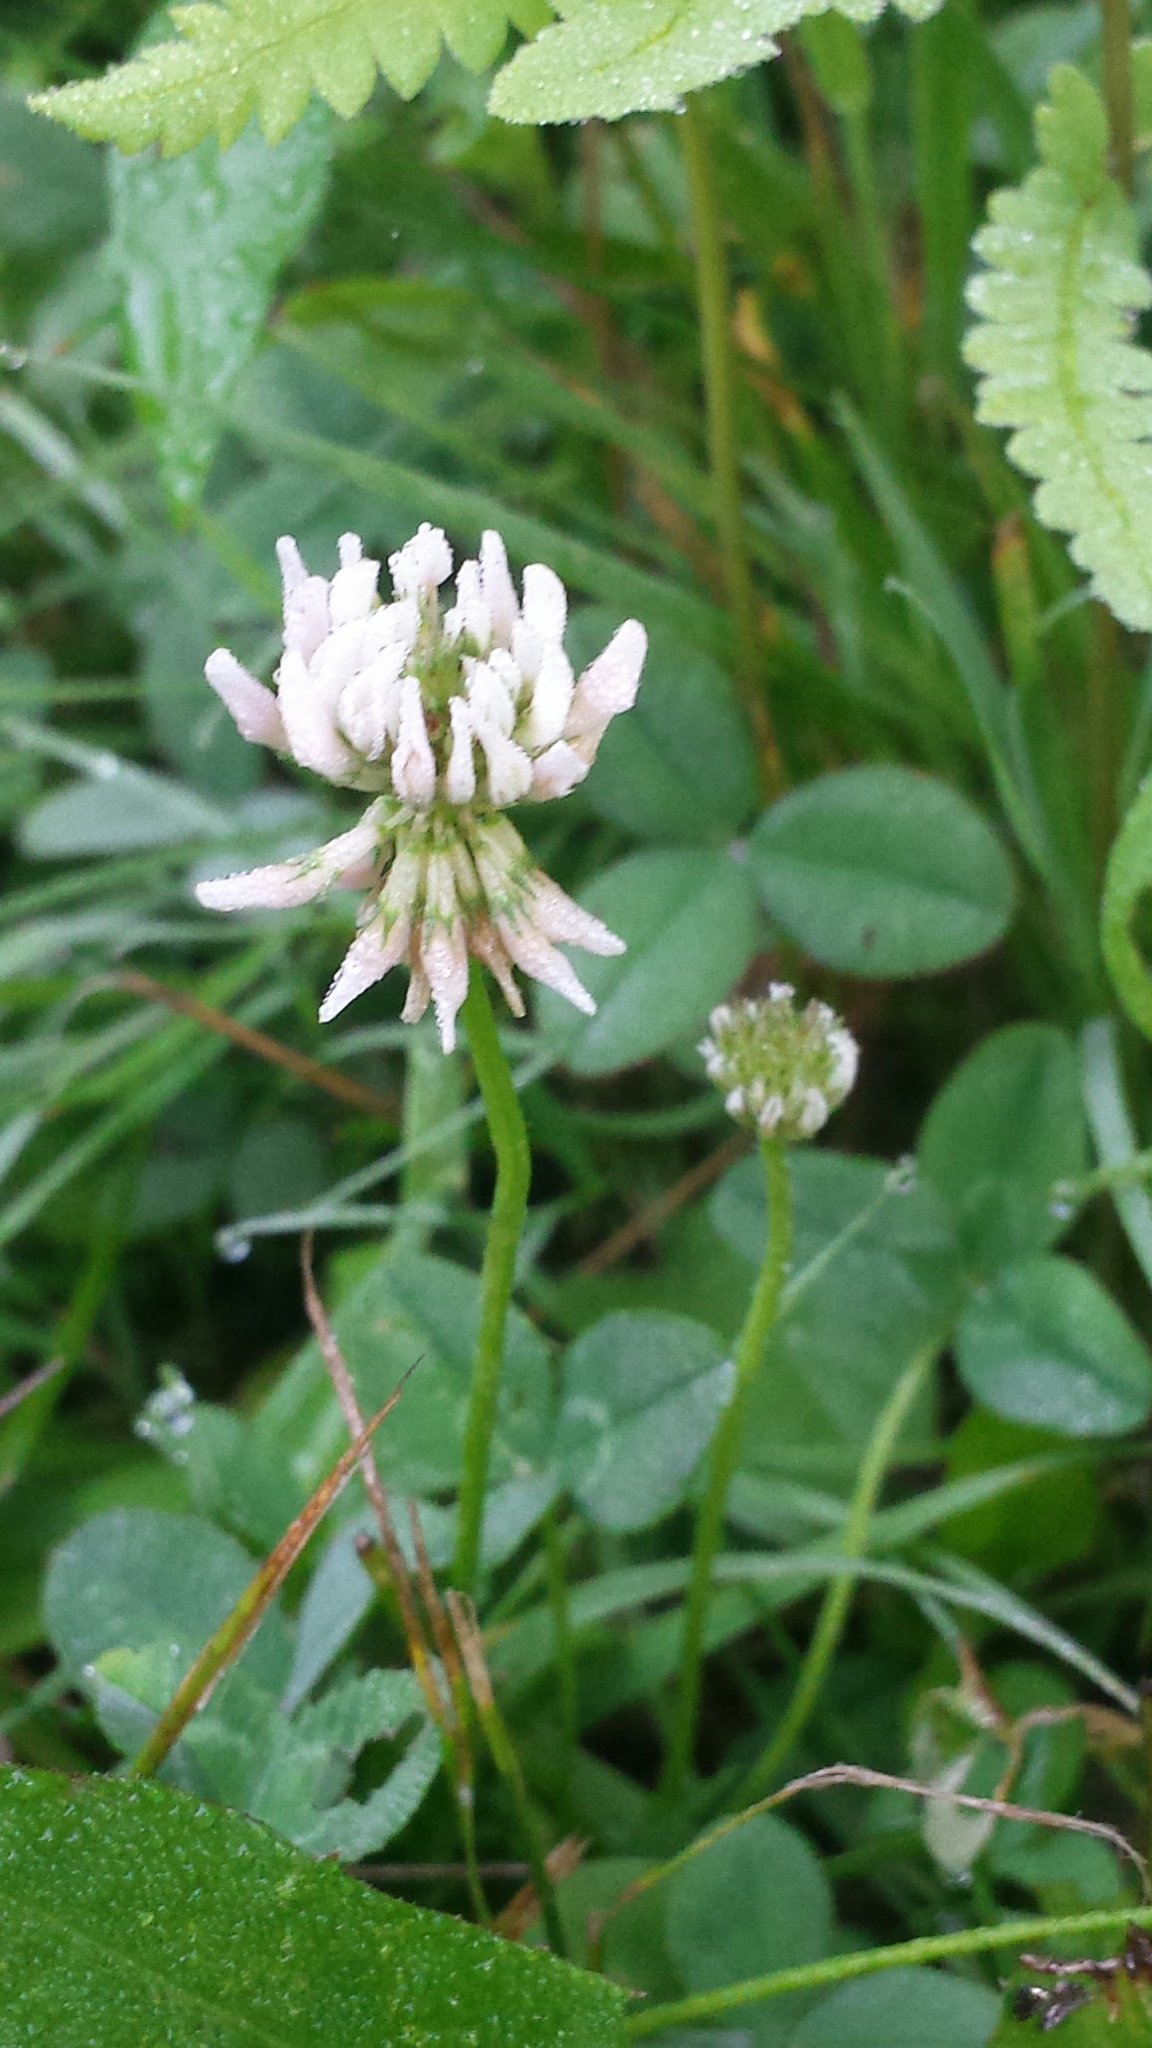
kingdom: Plantae
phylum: Tracheophyta
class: Magnoliopsida
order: Fabales
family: Fabaceae
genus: Trifolium
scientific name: Trifolium repens
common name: White clover
